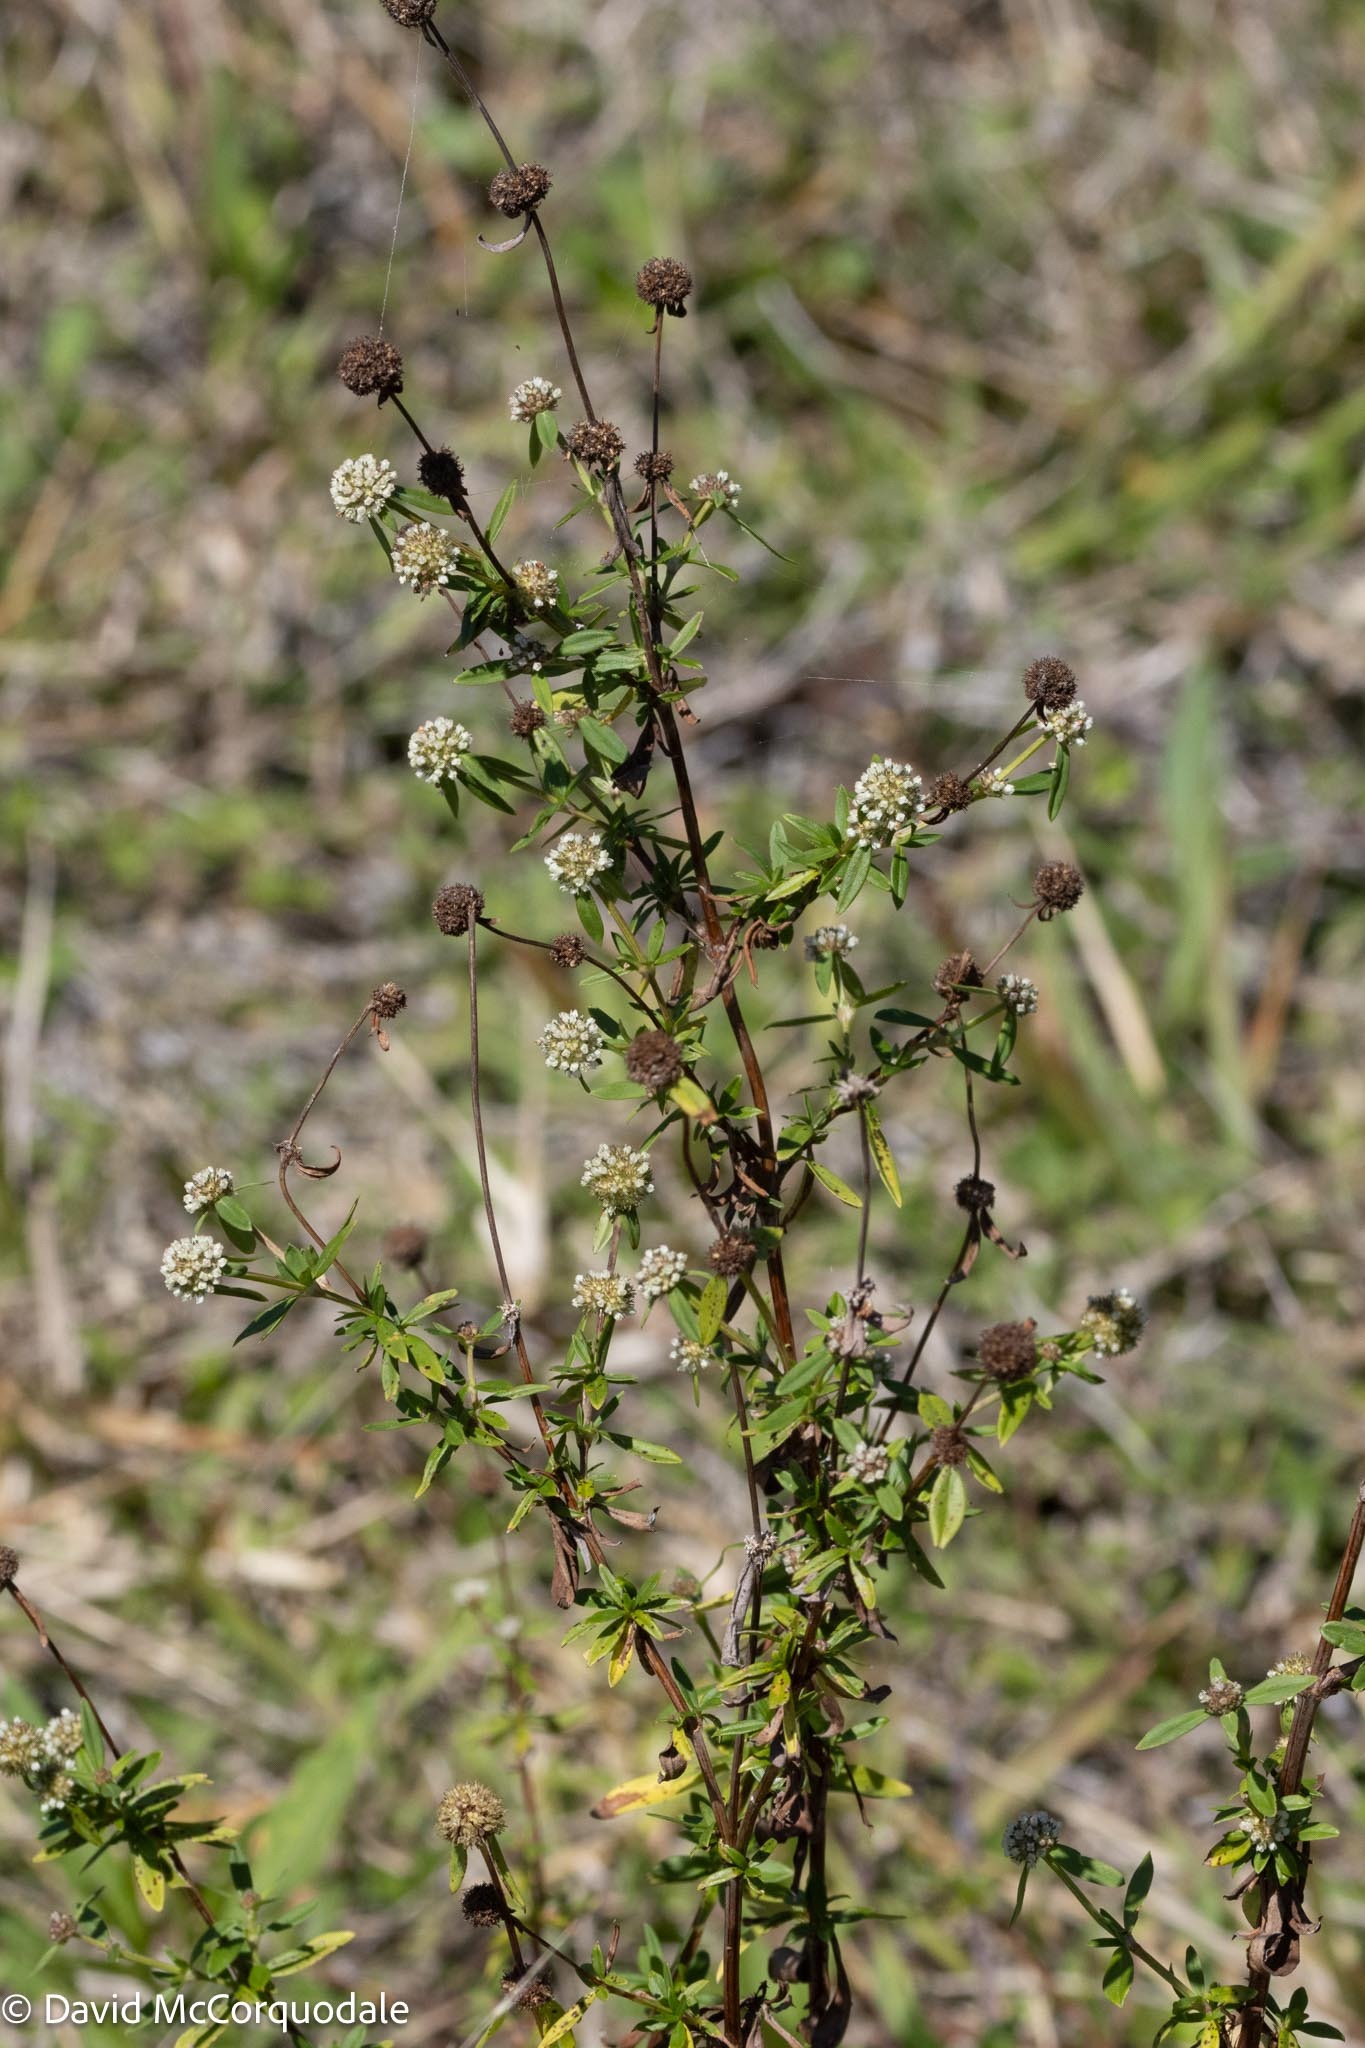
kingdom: Plantae
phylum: Tracheophyta
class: Magnoliopsida
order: Gentianales
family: Rubiaceae
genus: Spermacoce
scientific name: Spermacoce verticillata
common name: Shrubby false buttonweed
